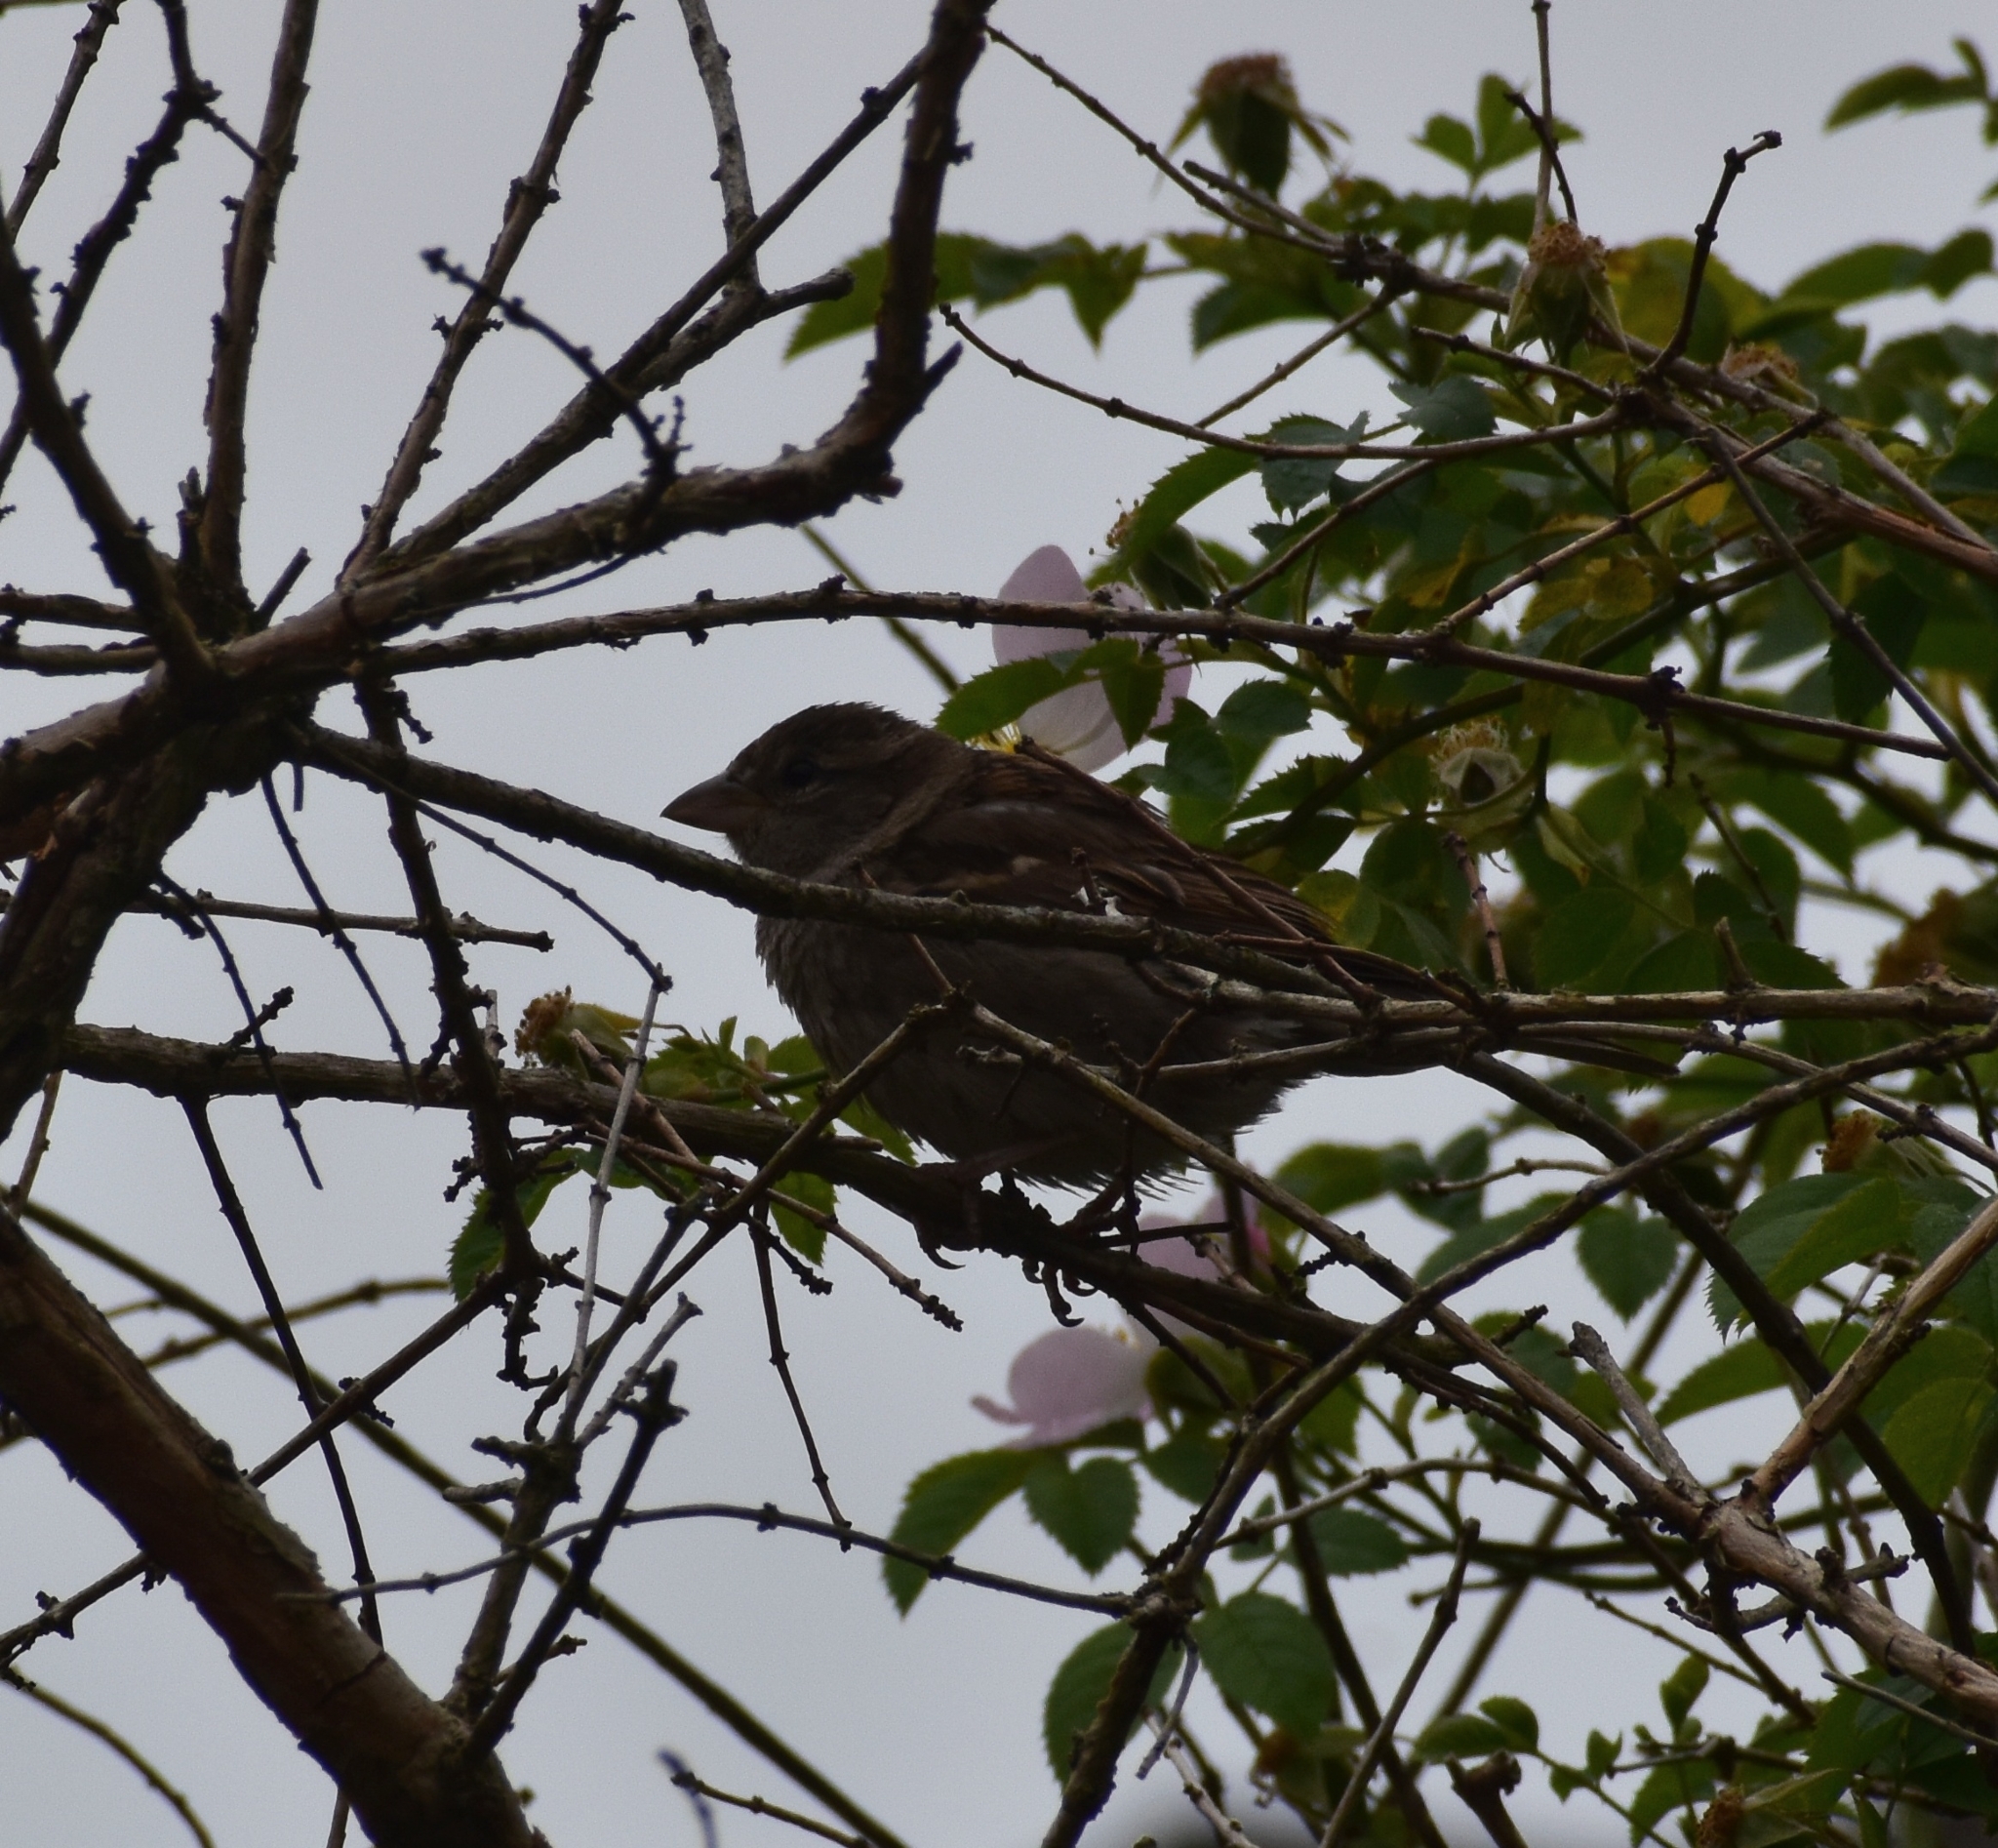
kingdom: Animalia
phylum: Chordata
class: Aves
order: Passeriformes
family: Passeridae
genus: Passer
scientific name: Passer domesticus
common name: House sparrow
